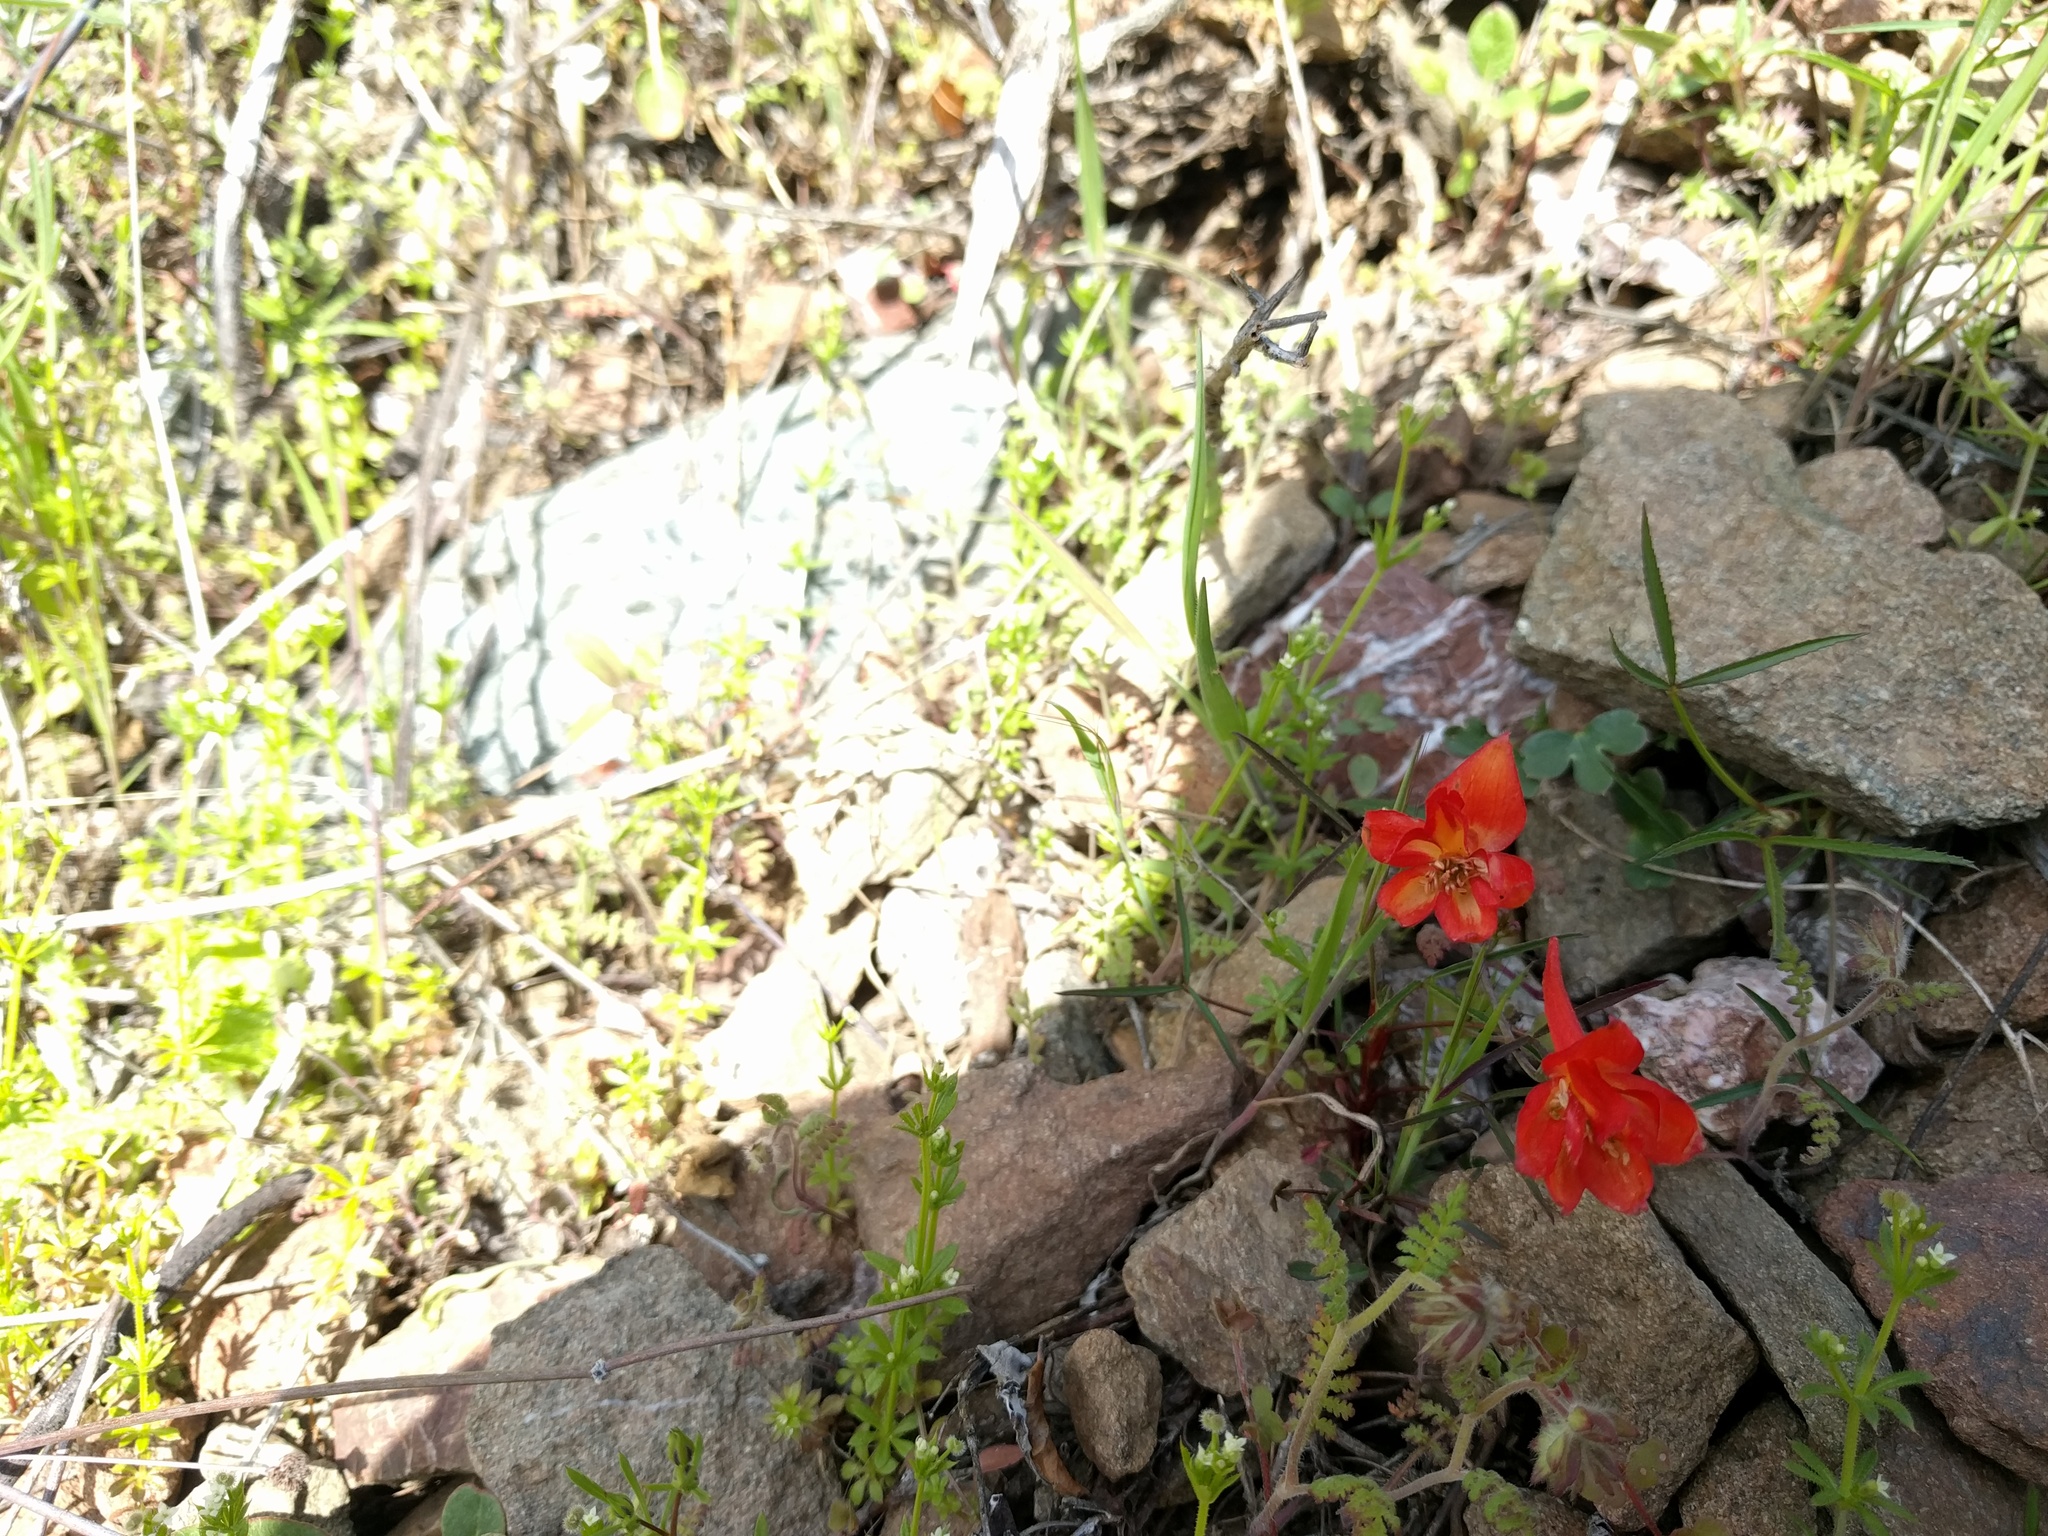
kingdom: Plantae
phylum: Tracheophyta
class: Magnoliopsida
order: Ranunculales
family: Ranunculaceae
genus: Delphinium
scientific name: Delphinium nudicaule
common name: Red larkspur
